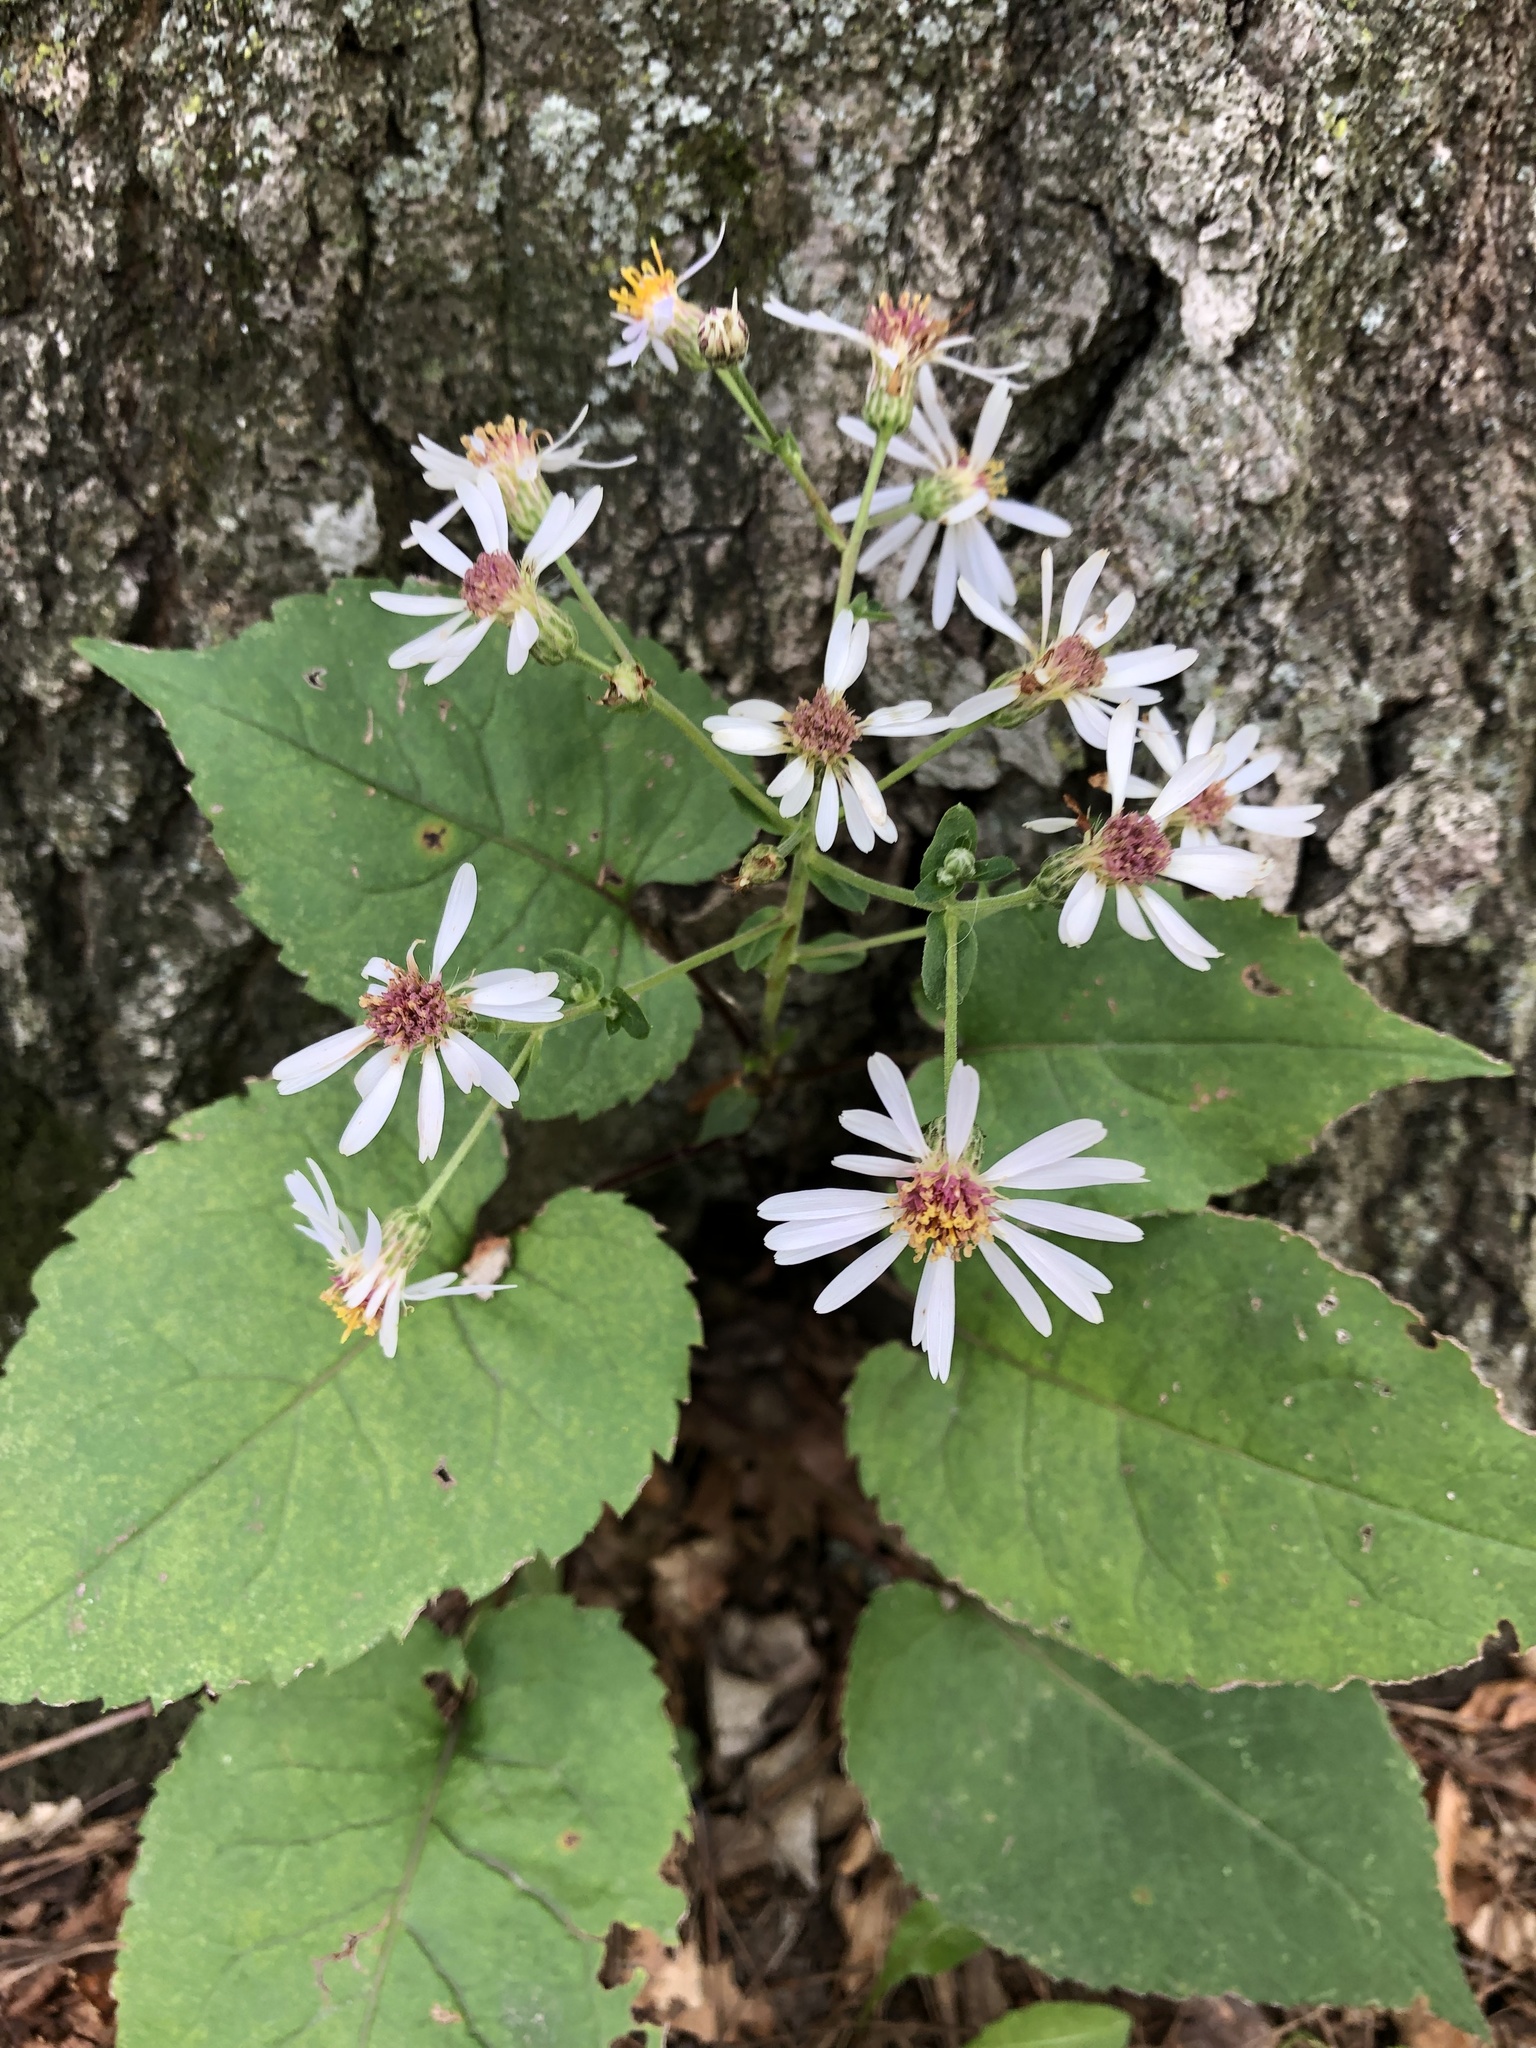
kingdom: Plantae
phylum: Tracheophyta
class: Magnoliopsida
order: Asterales
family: Asteraceae
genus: Eurybia
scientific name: Eurybia macrophylla
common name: Big-leaved aster
